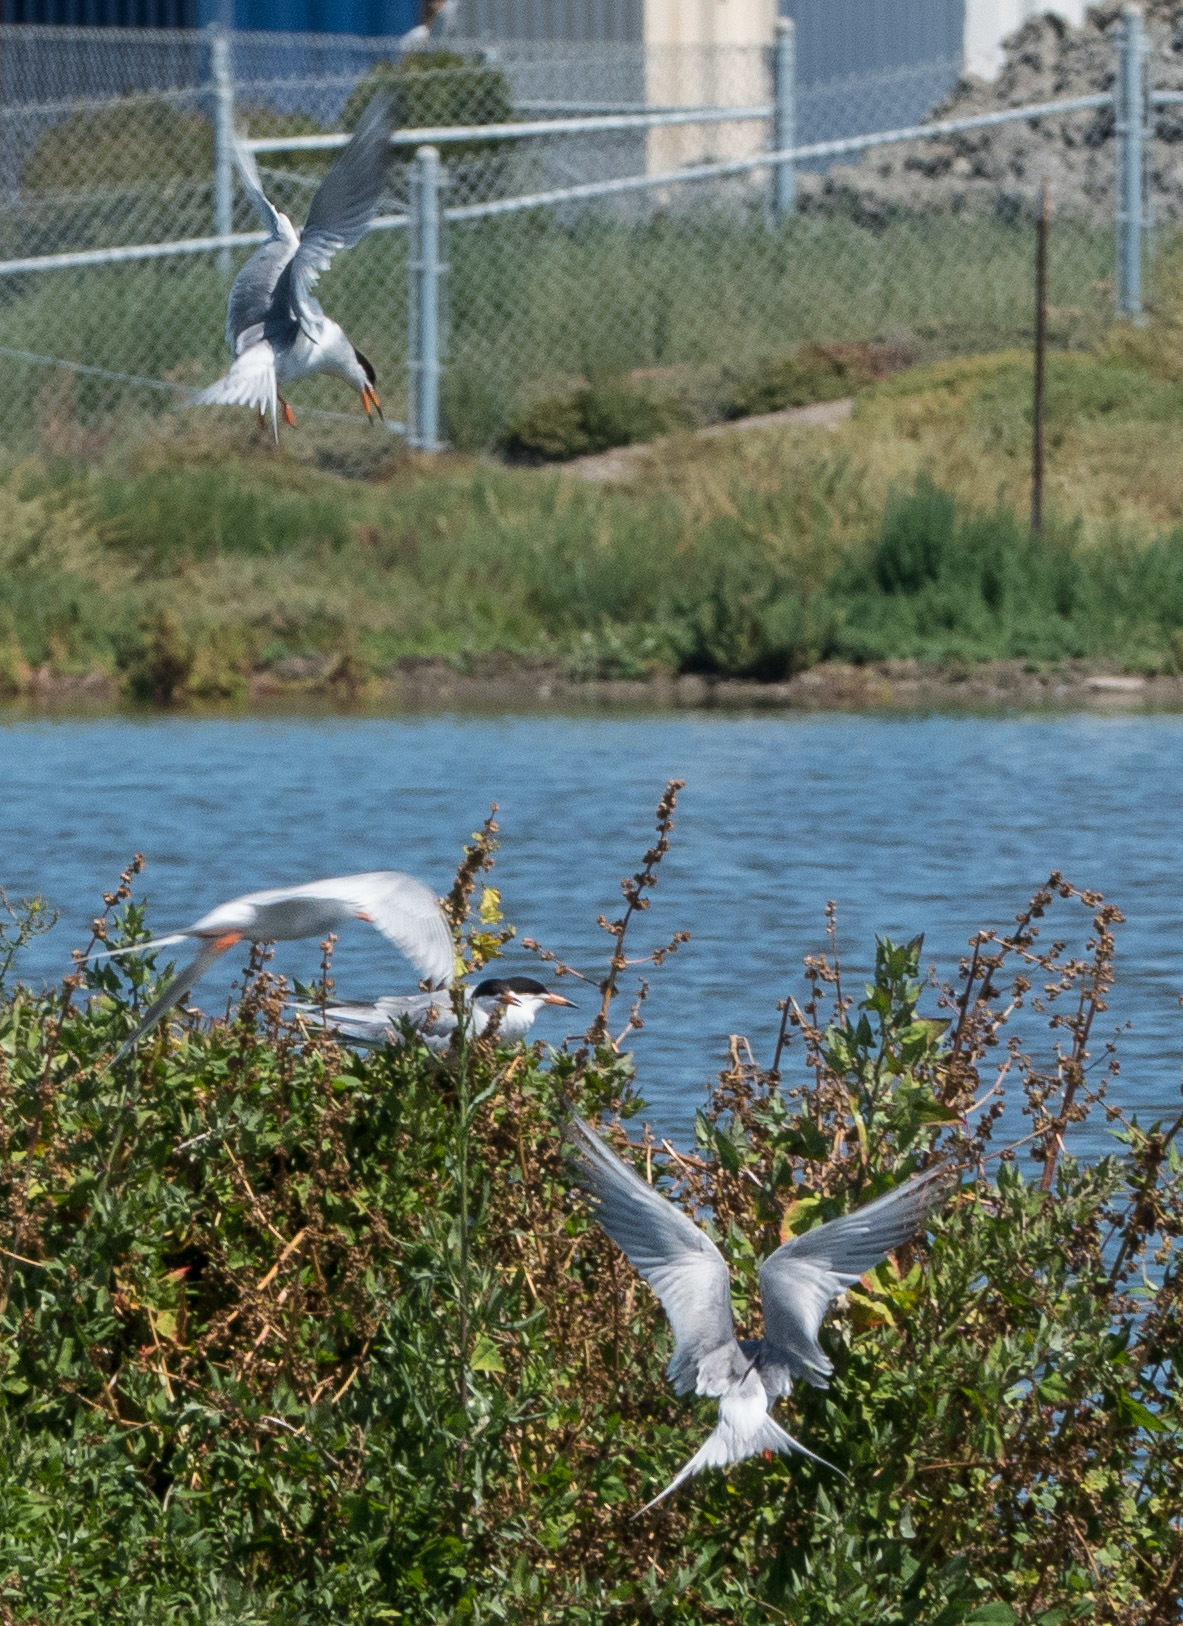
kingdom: Animalia
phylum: Chordata
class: Aves
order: Charadriiformes
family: Laridae
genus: Sterna
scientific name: Sterna forsteri
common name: Forster's tern
